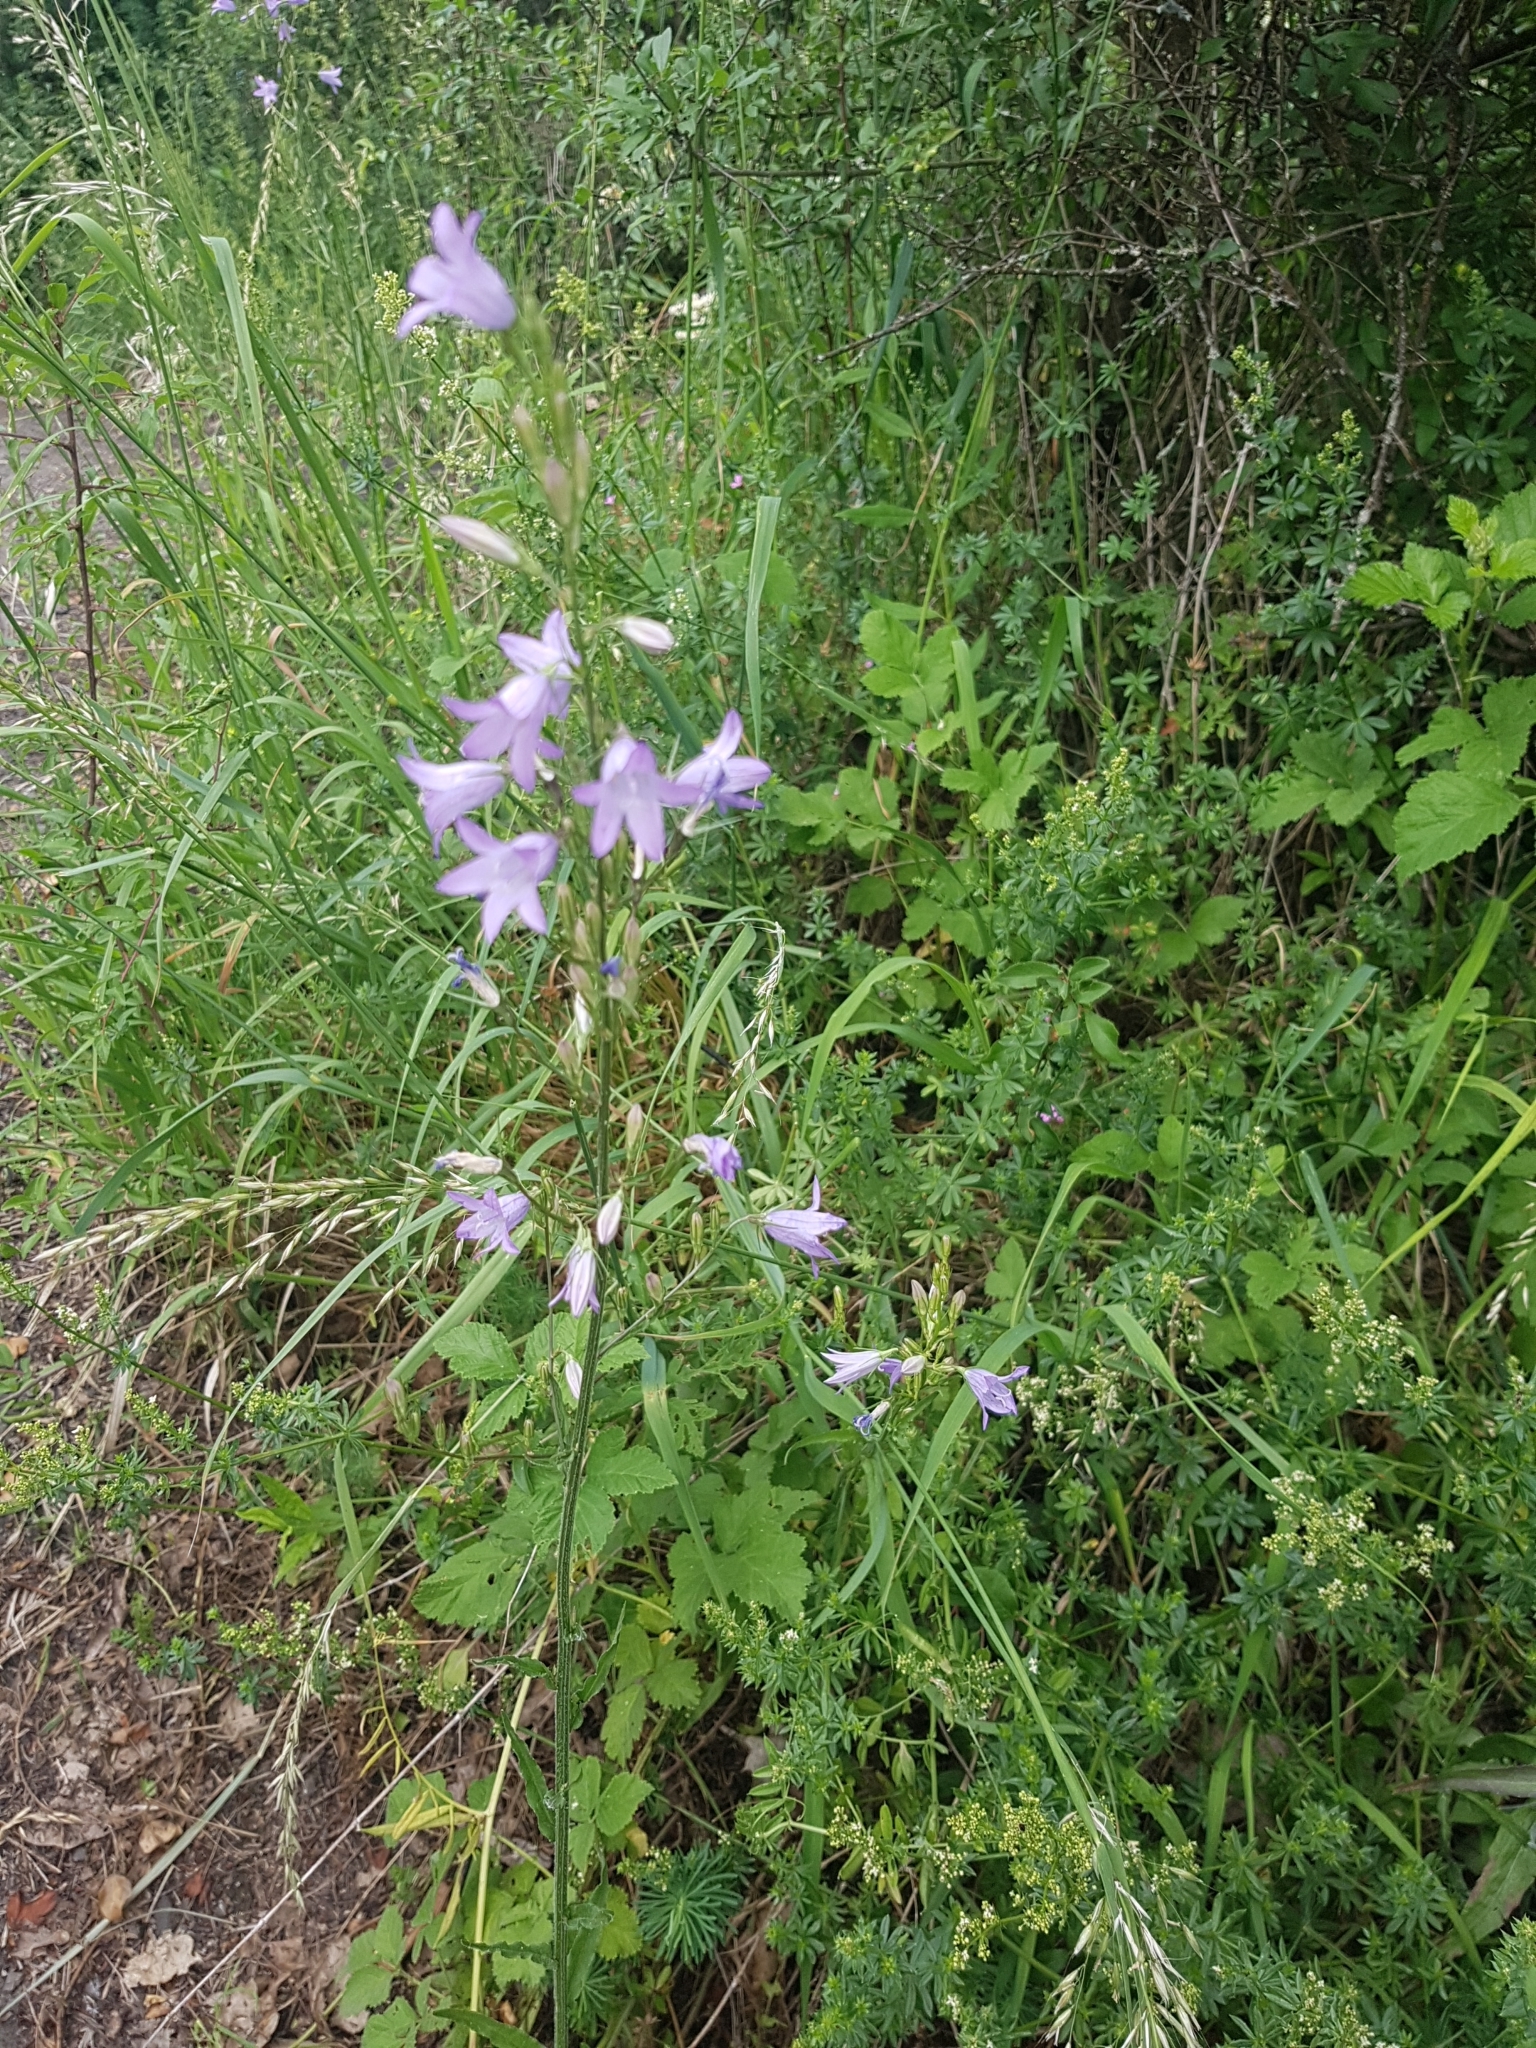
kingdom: Plantae
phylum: Tracheophyta
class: Magnoliopsida
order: Asterales
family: Campanulaceae
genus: Campanula
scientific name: Campanula rapunculus
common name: Rampion bellflower
